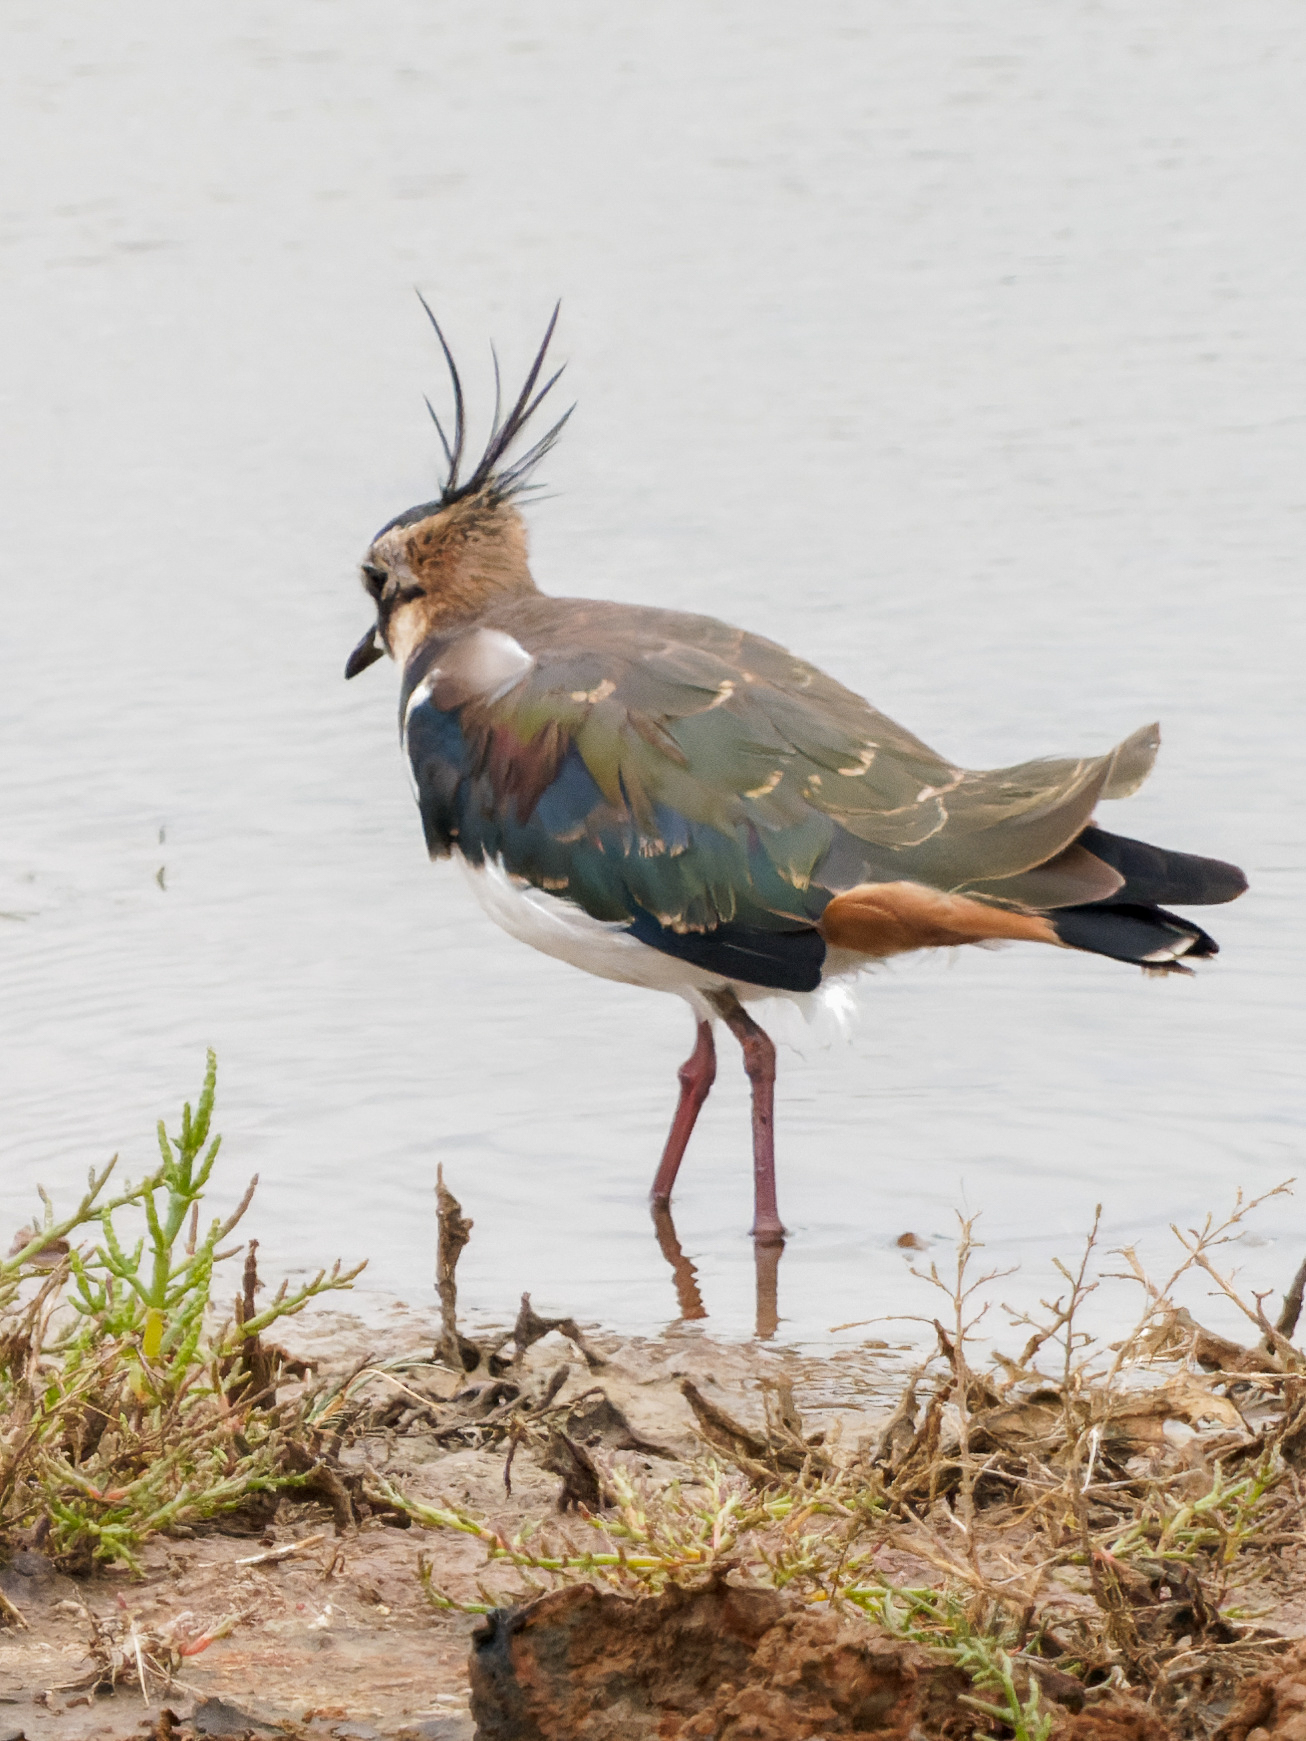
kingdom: Animalia
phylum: Chordata
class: Aves
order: Charadriiformes
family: Charadriidae
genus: Vanellus
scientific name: Vanellus vanellus
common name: Northern lapwing
